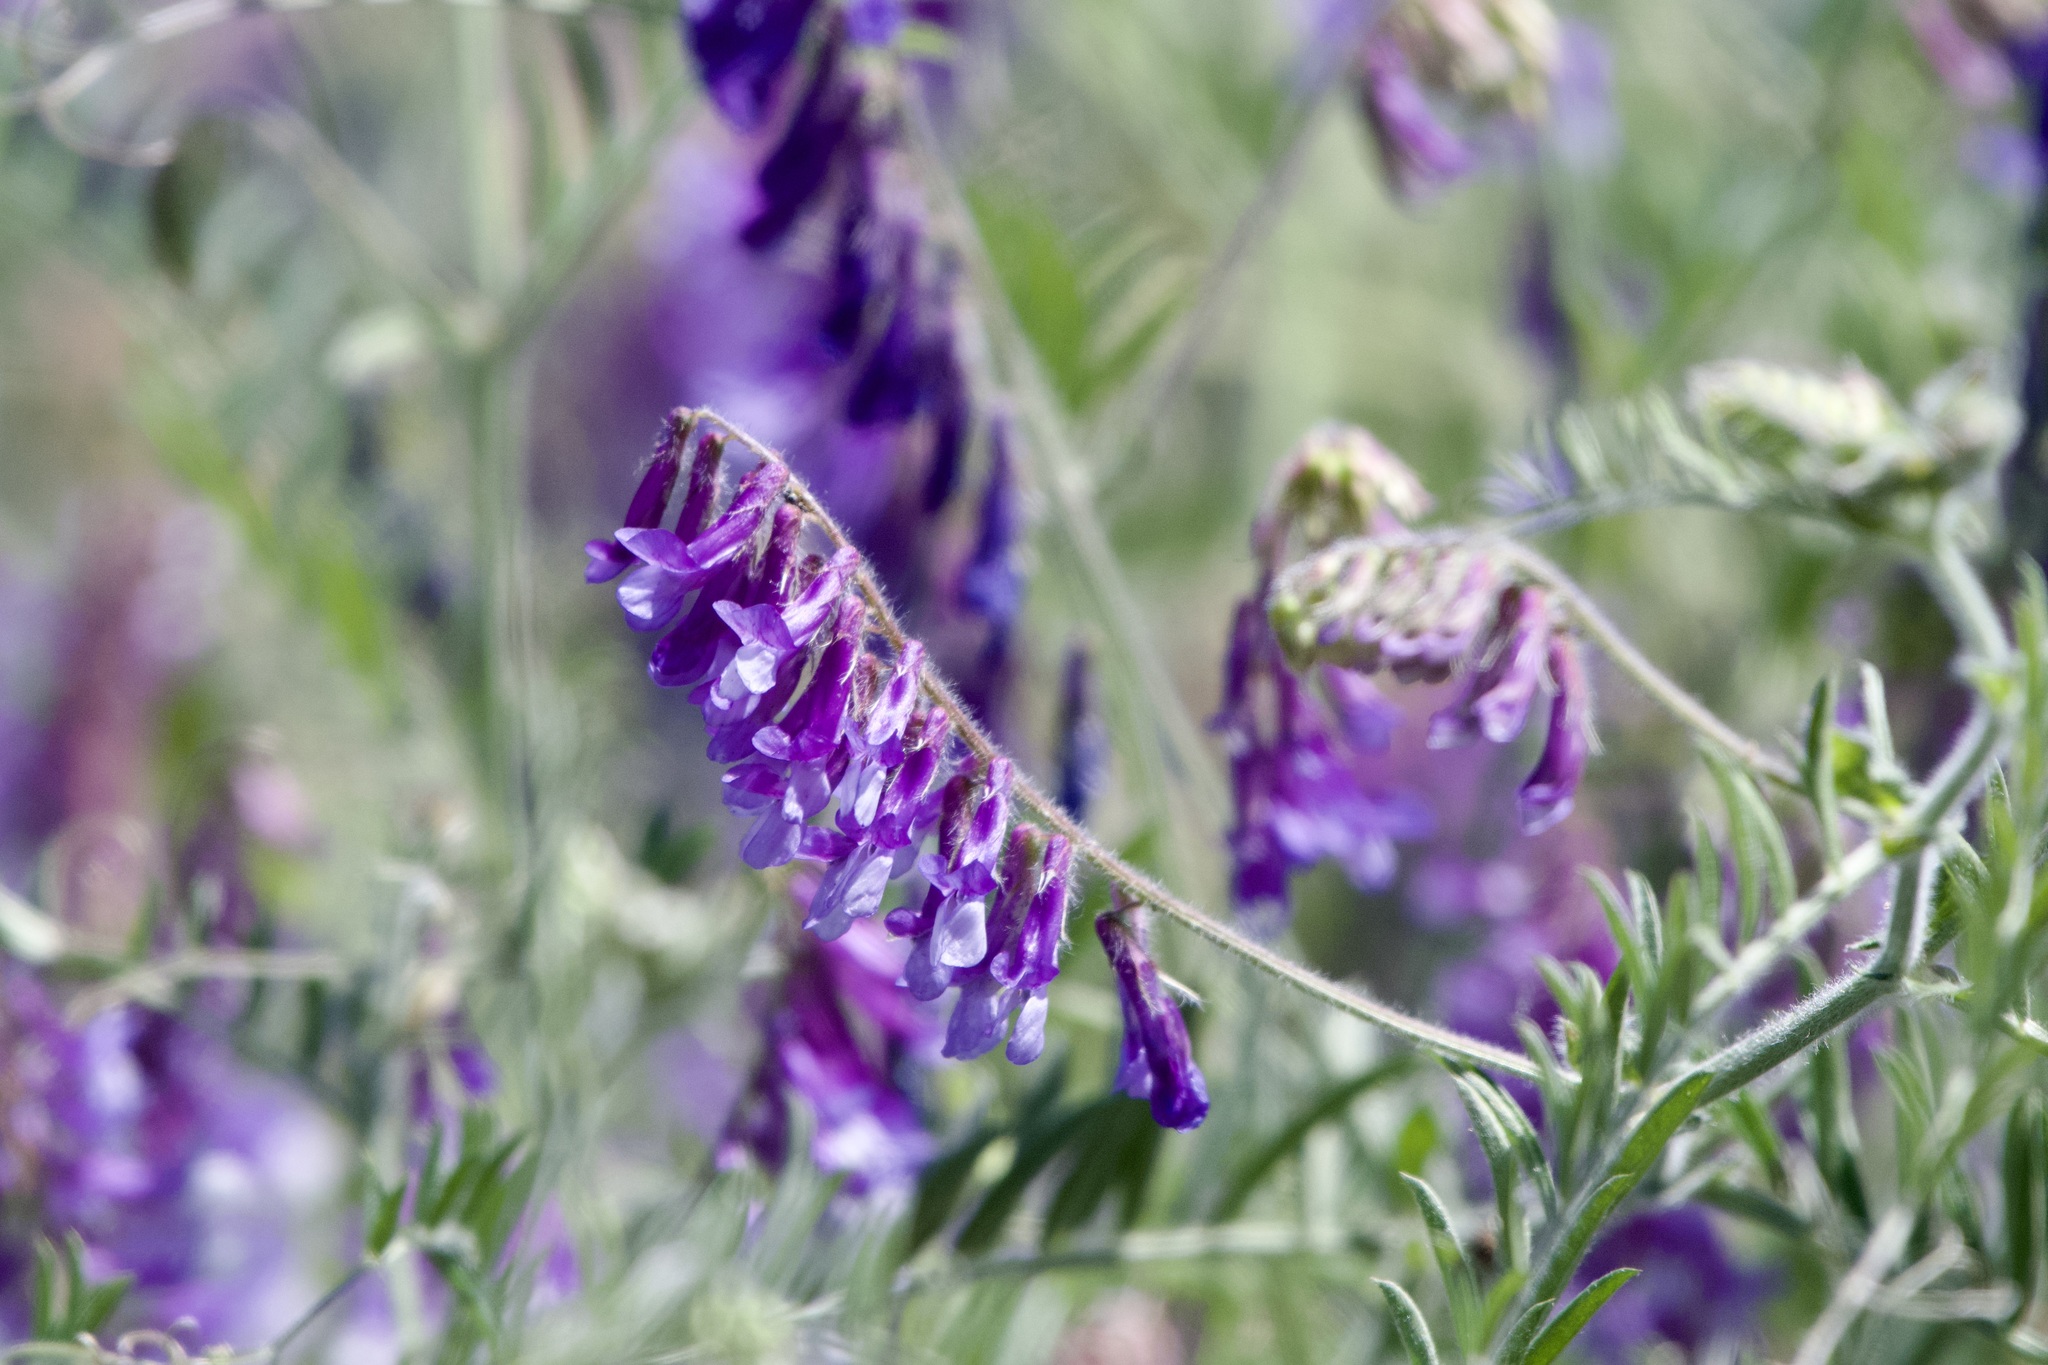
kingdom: Plantae
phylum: Tracheophyta
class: Magnoliopsida
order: Fabales
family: Fabaceae
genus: Vicia
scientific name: Vicia villosa
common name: Fodder vetch
